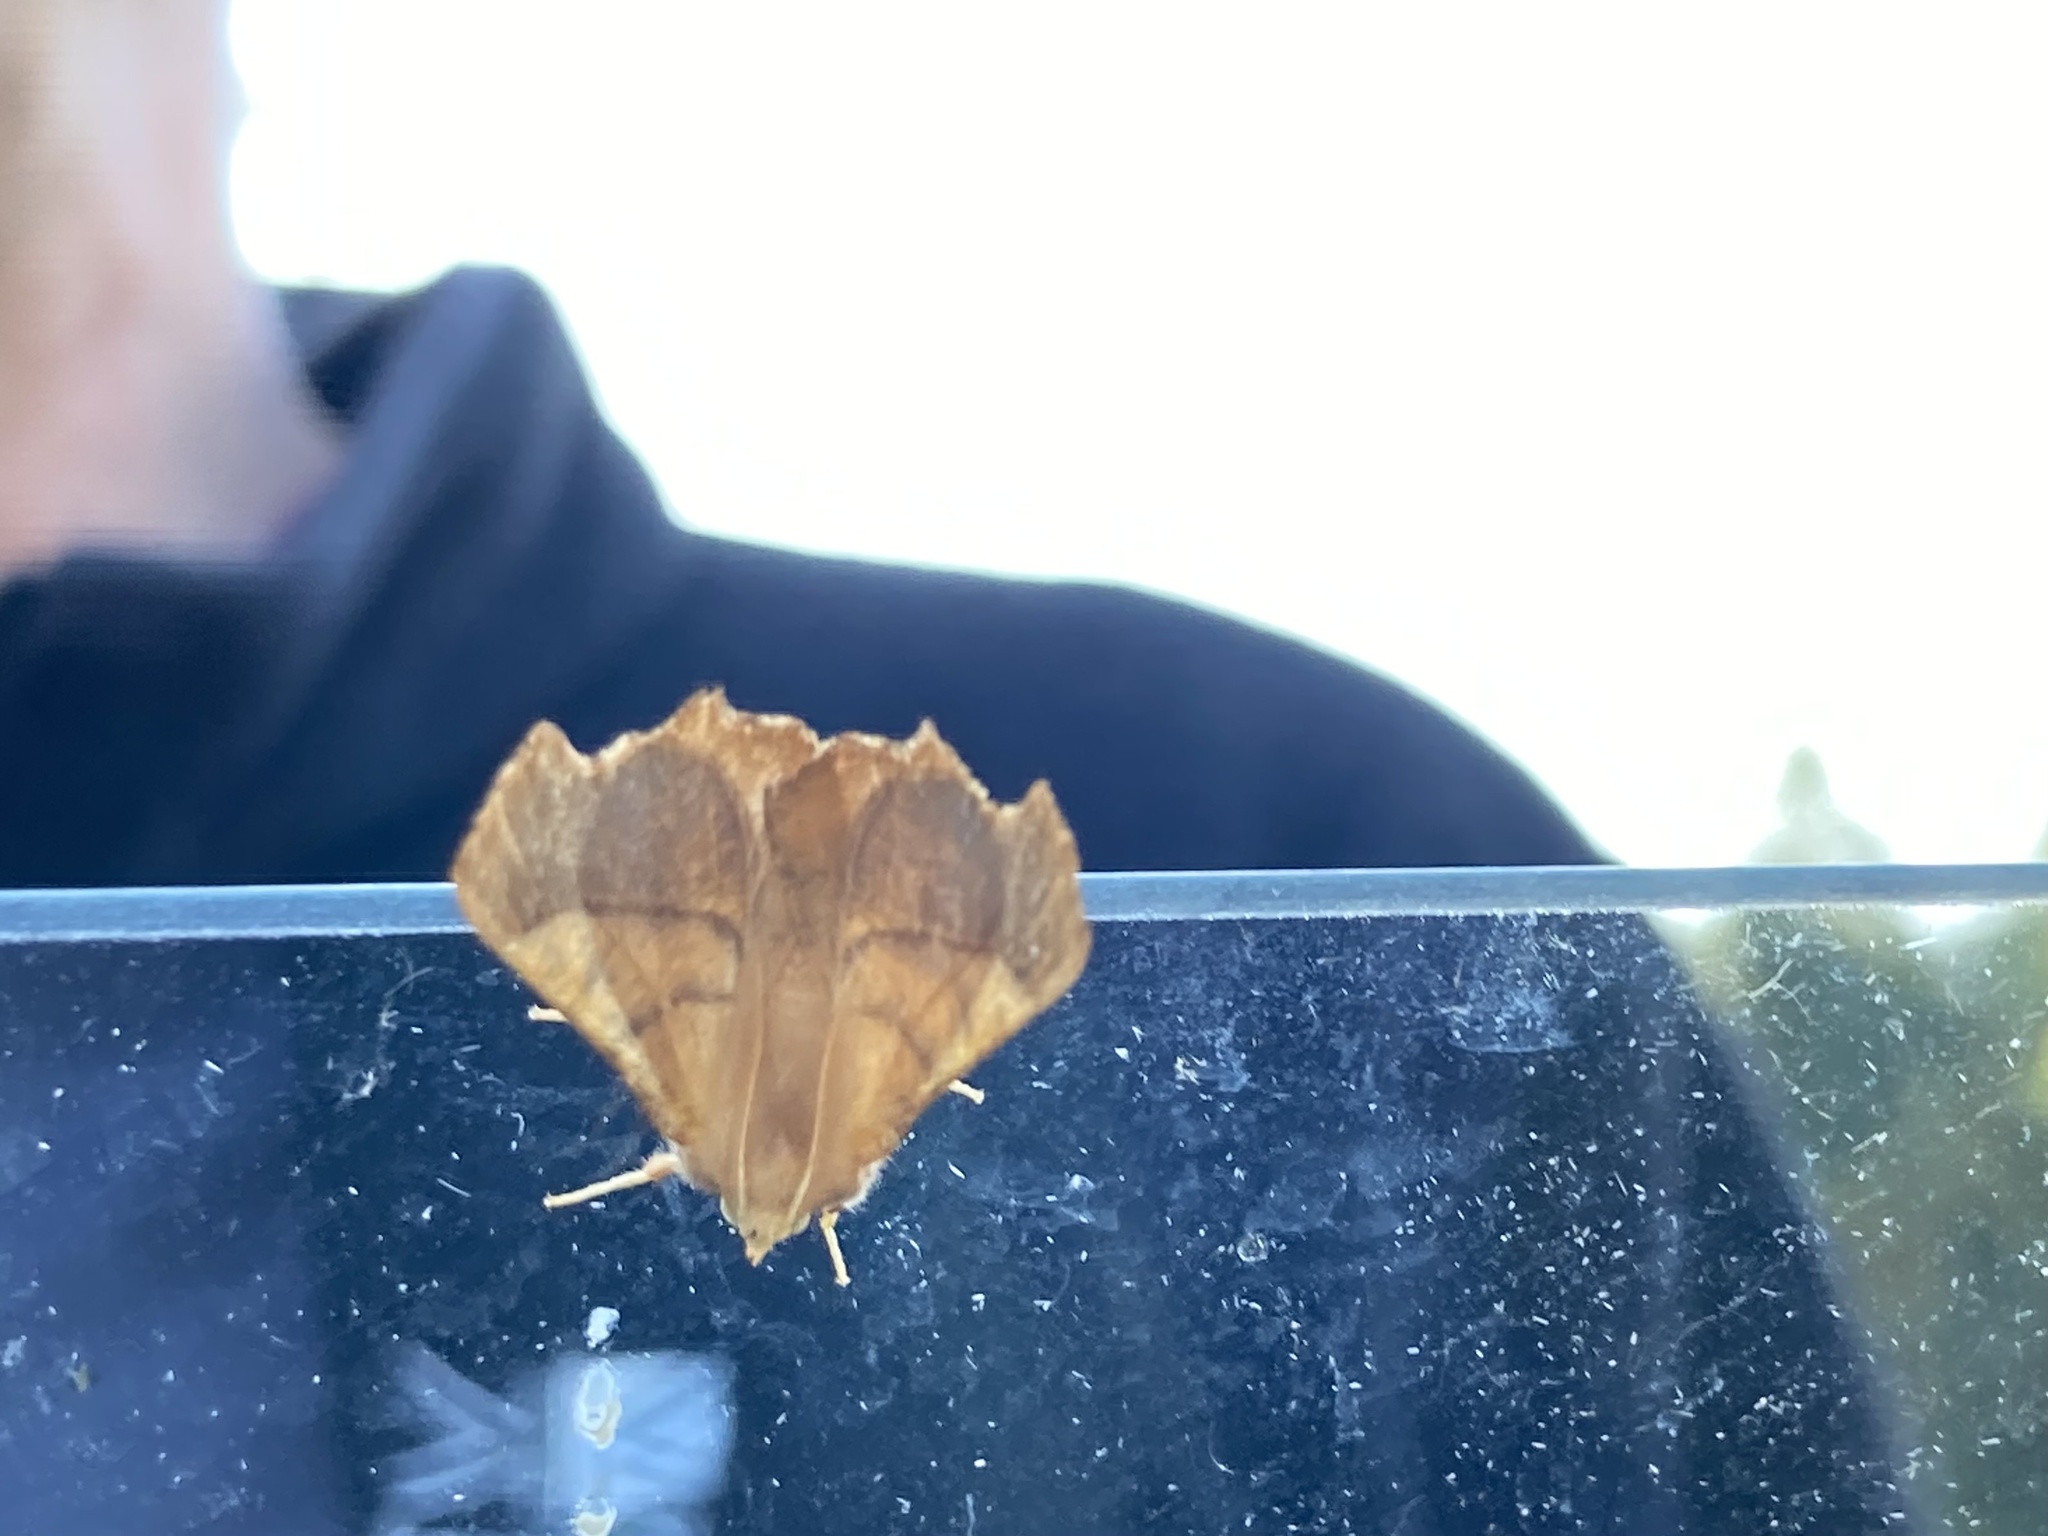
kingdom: Animalia
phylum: Arthropoda
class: Insecta
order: Lepidoptera
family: Geometridae
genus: Ennomos
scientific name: Ennomos fuscantaria
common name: Dusky thorn
